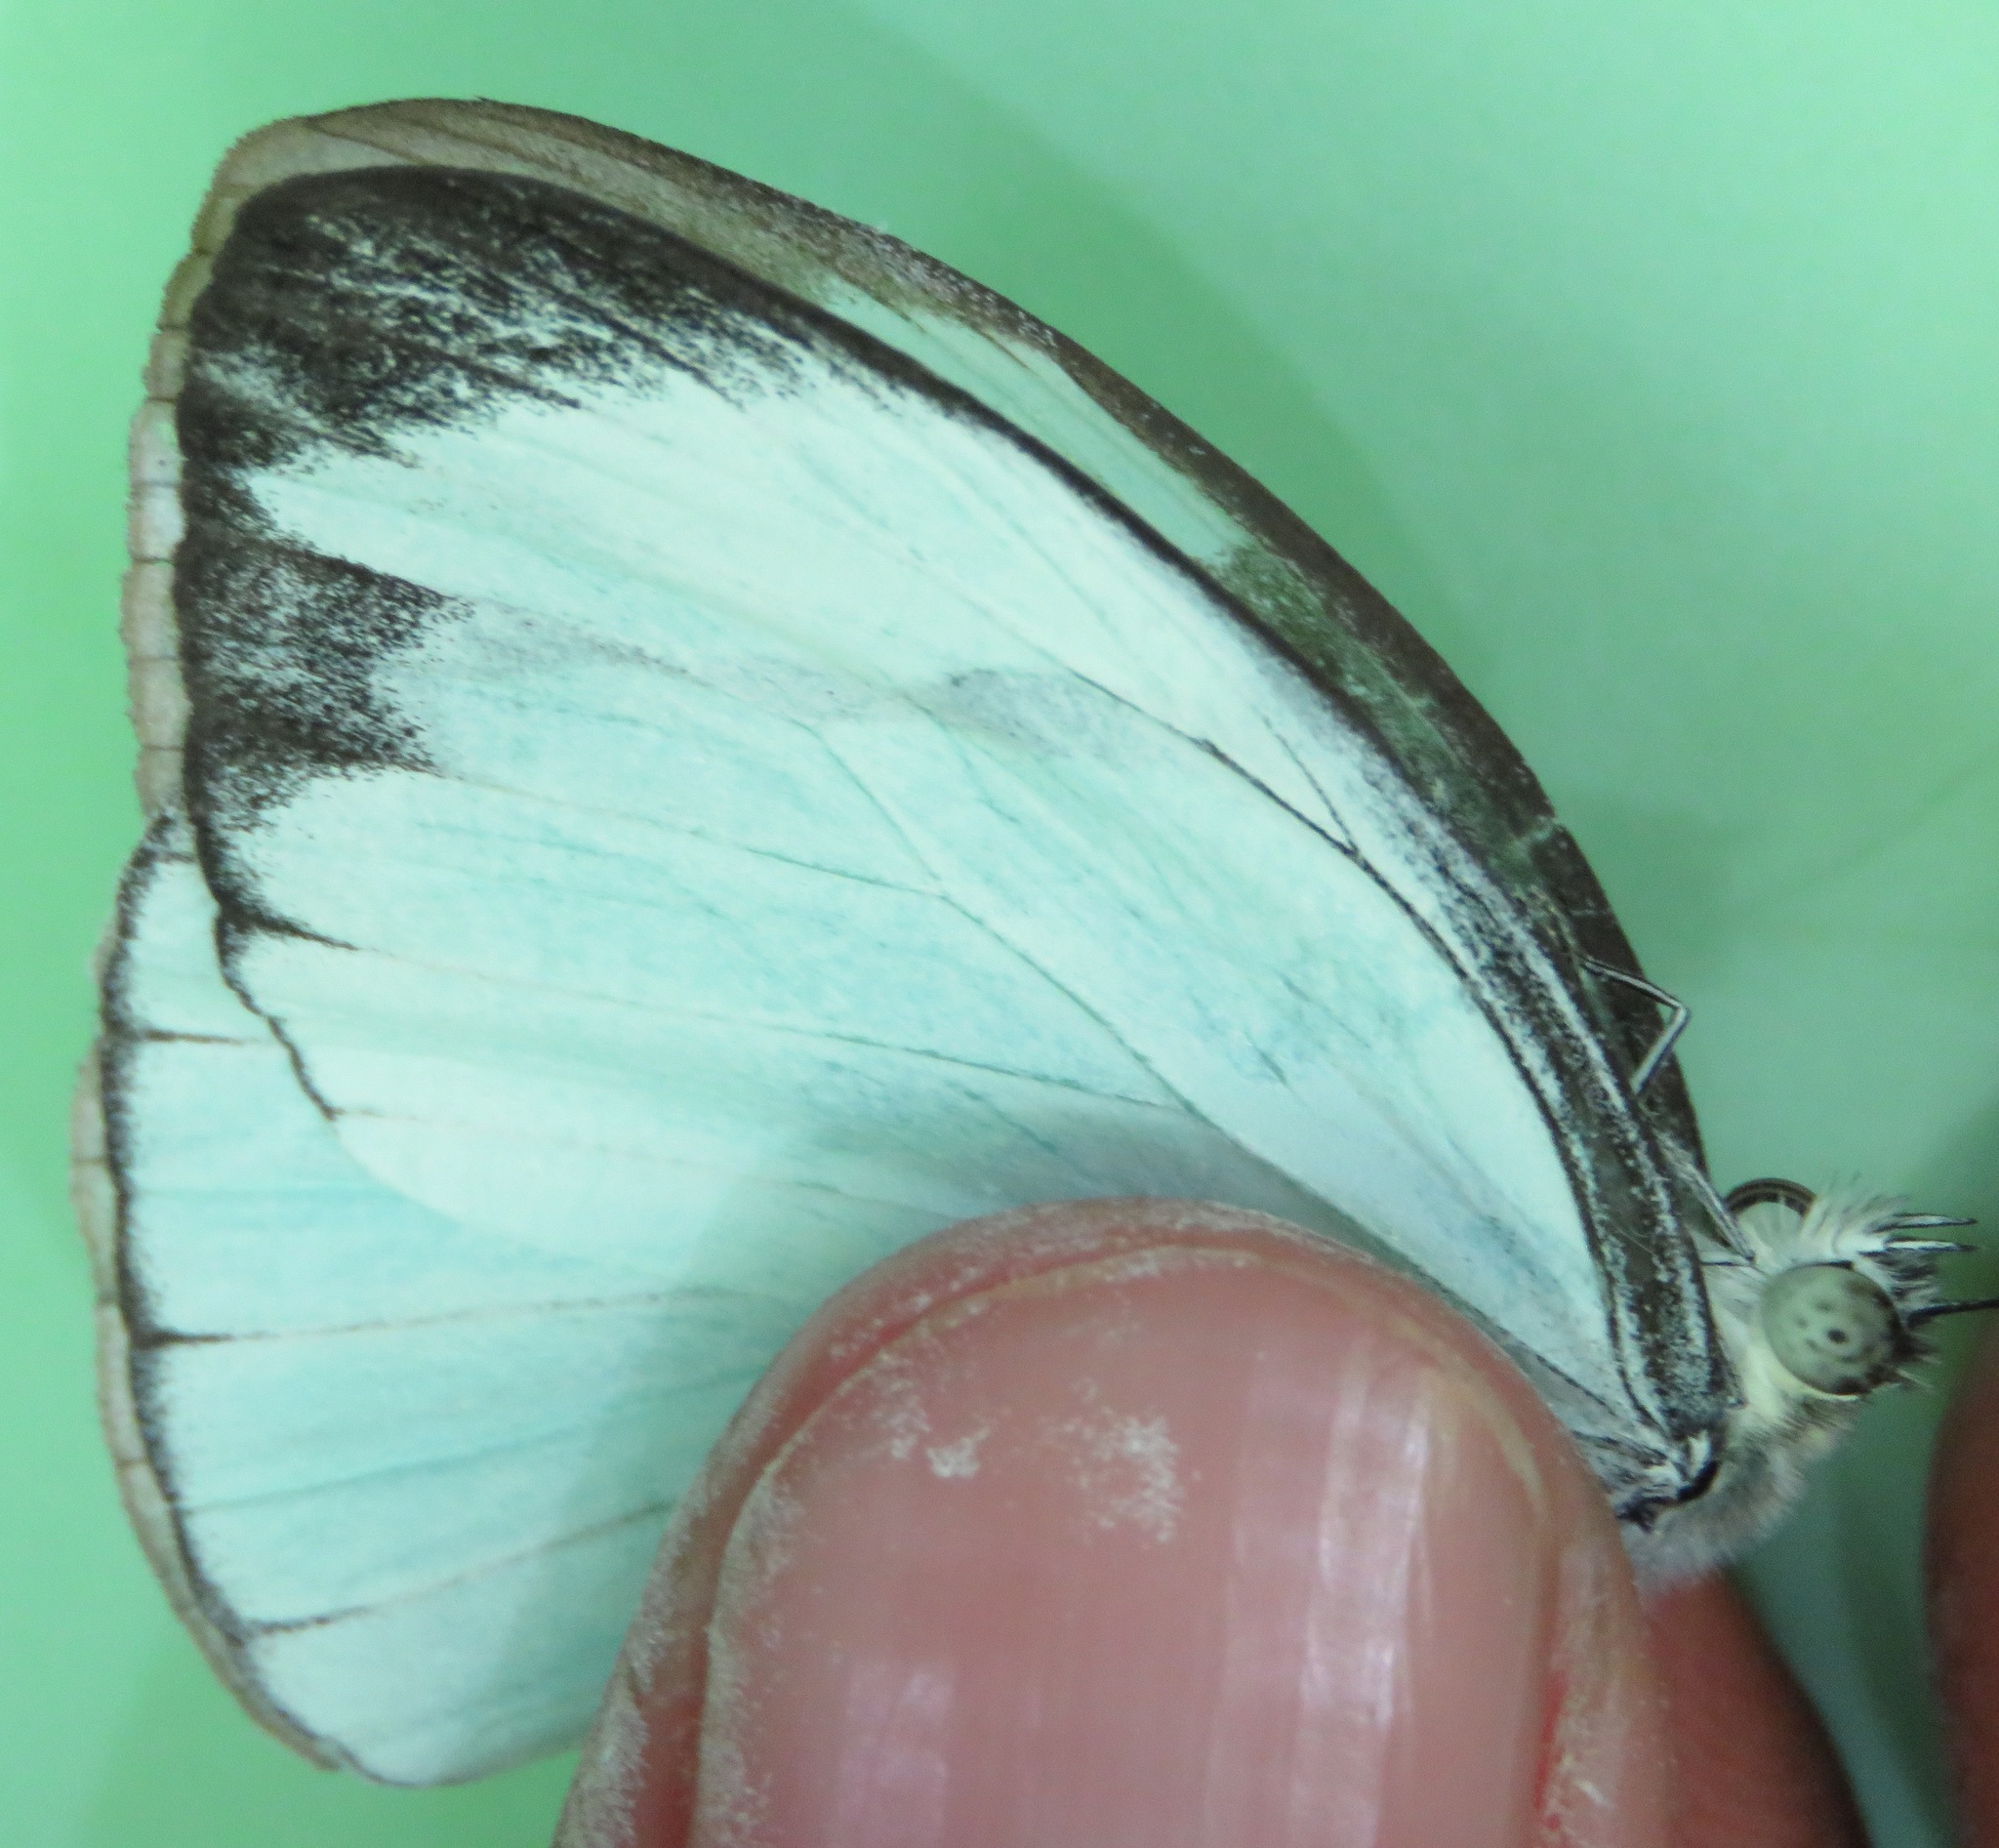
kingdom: Animalia
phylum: Arthropoda
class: Insecta
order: Lepidoptera
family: Pieridae
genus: Itaballia
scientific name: Itaballia demophile
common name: Cross-barred white
